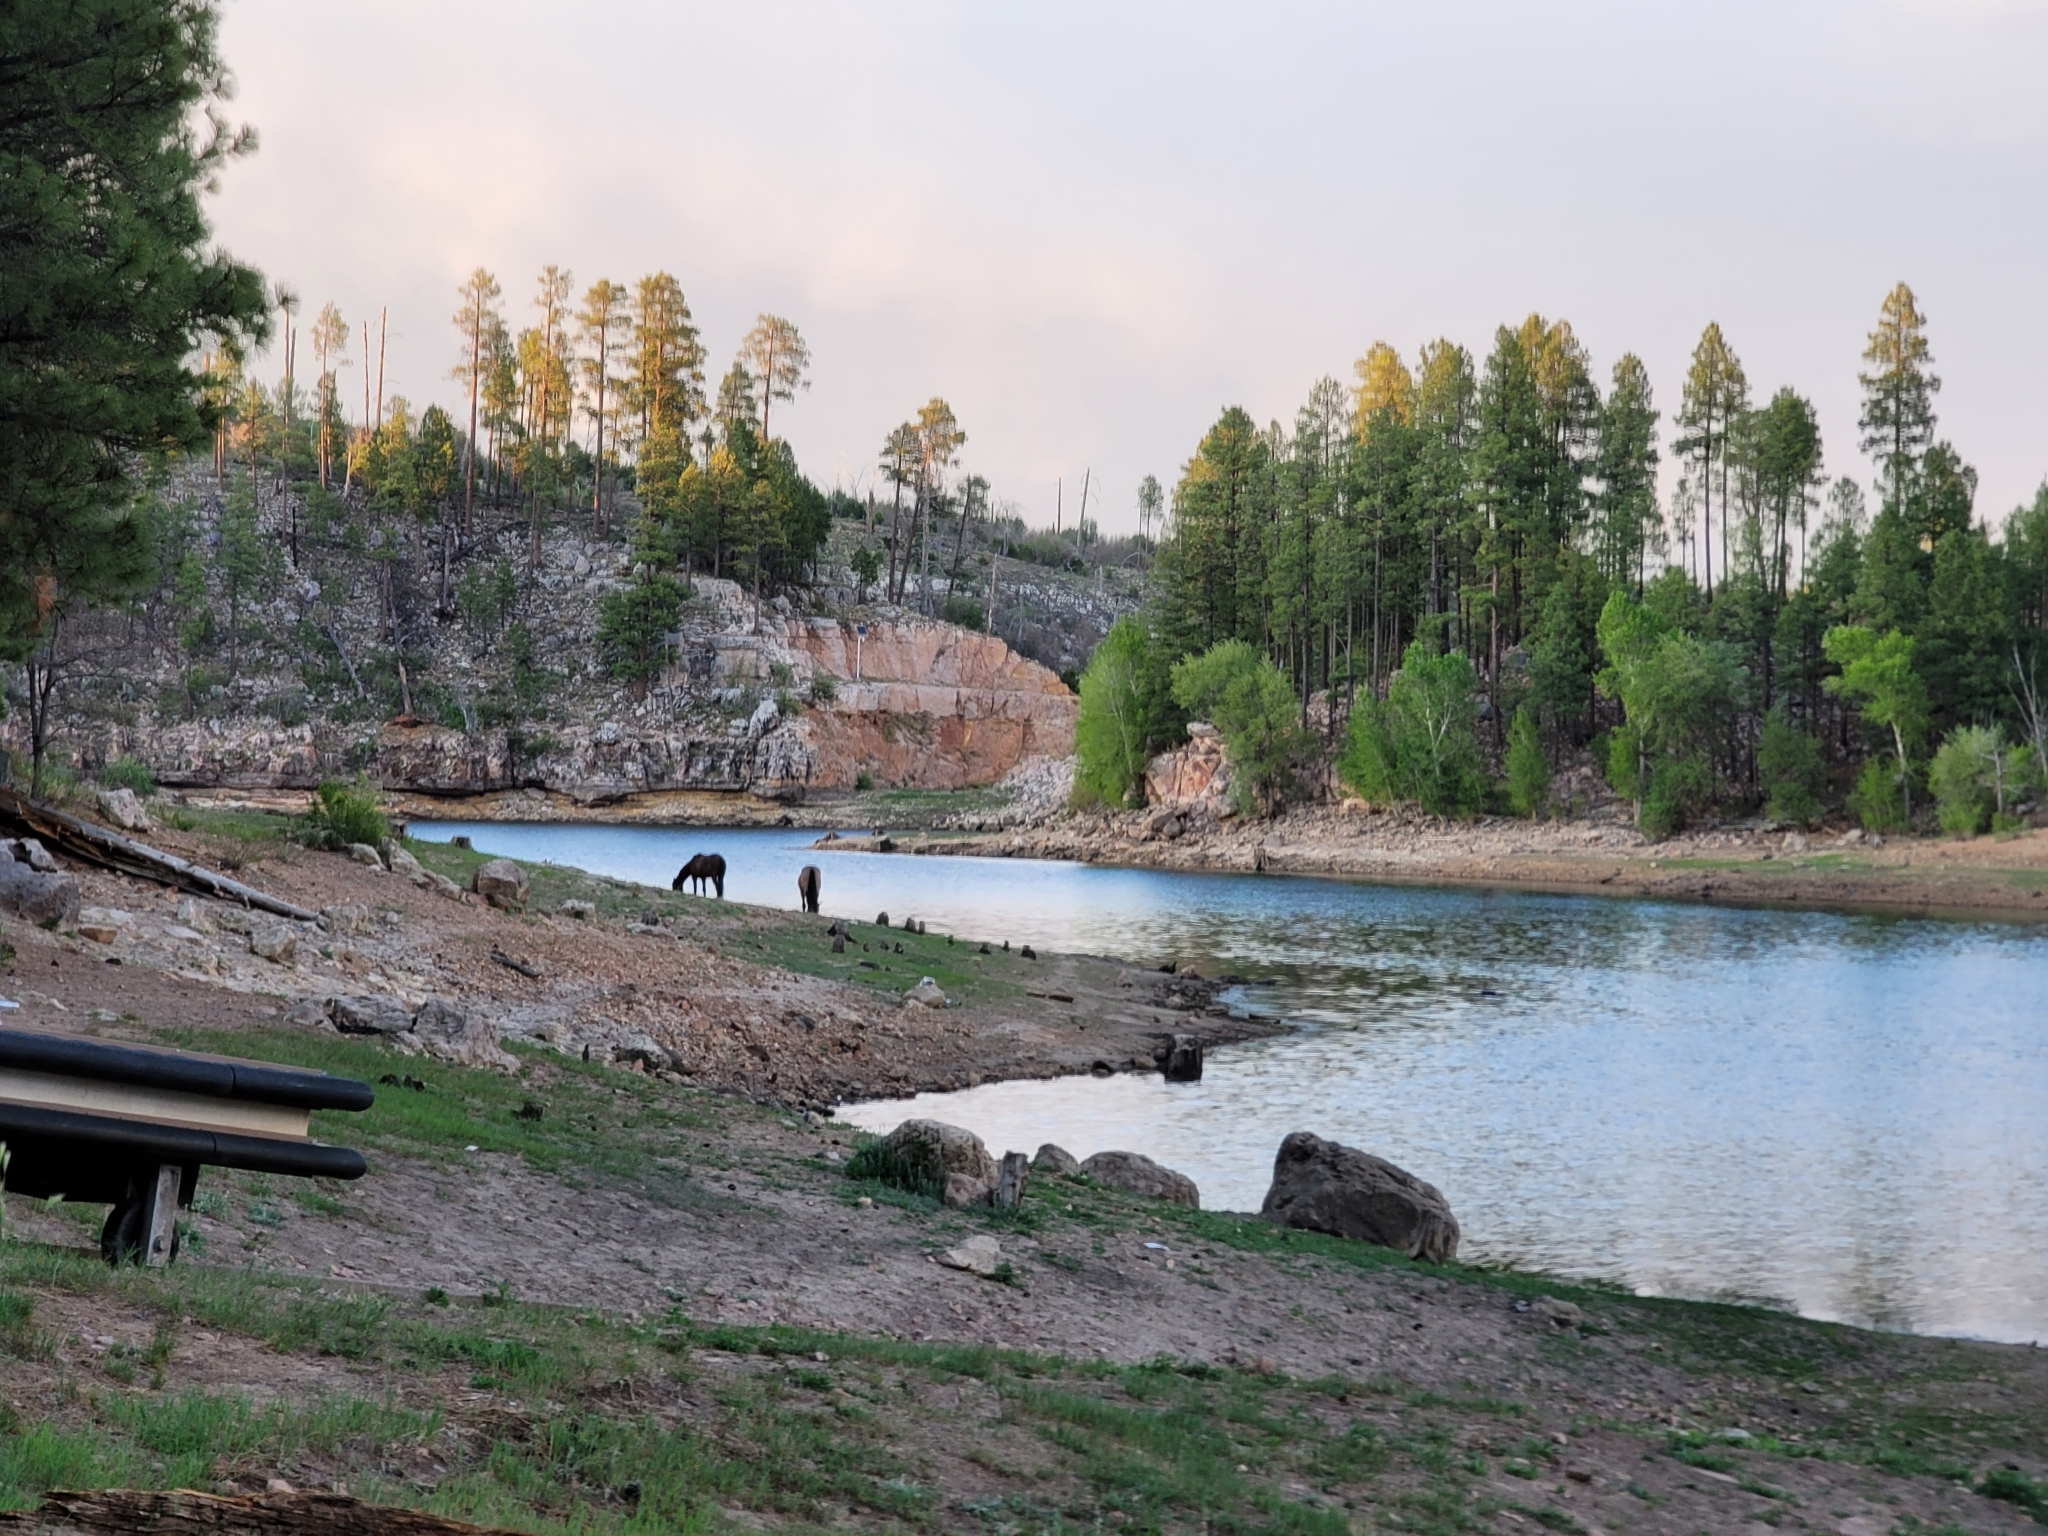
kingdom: Animalia
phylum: Chordata
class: Mammalia
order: Perissodactyla
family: Equidae
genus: Equus
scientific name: Equus caballus
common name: Horse
